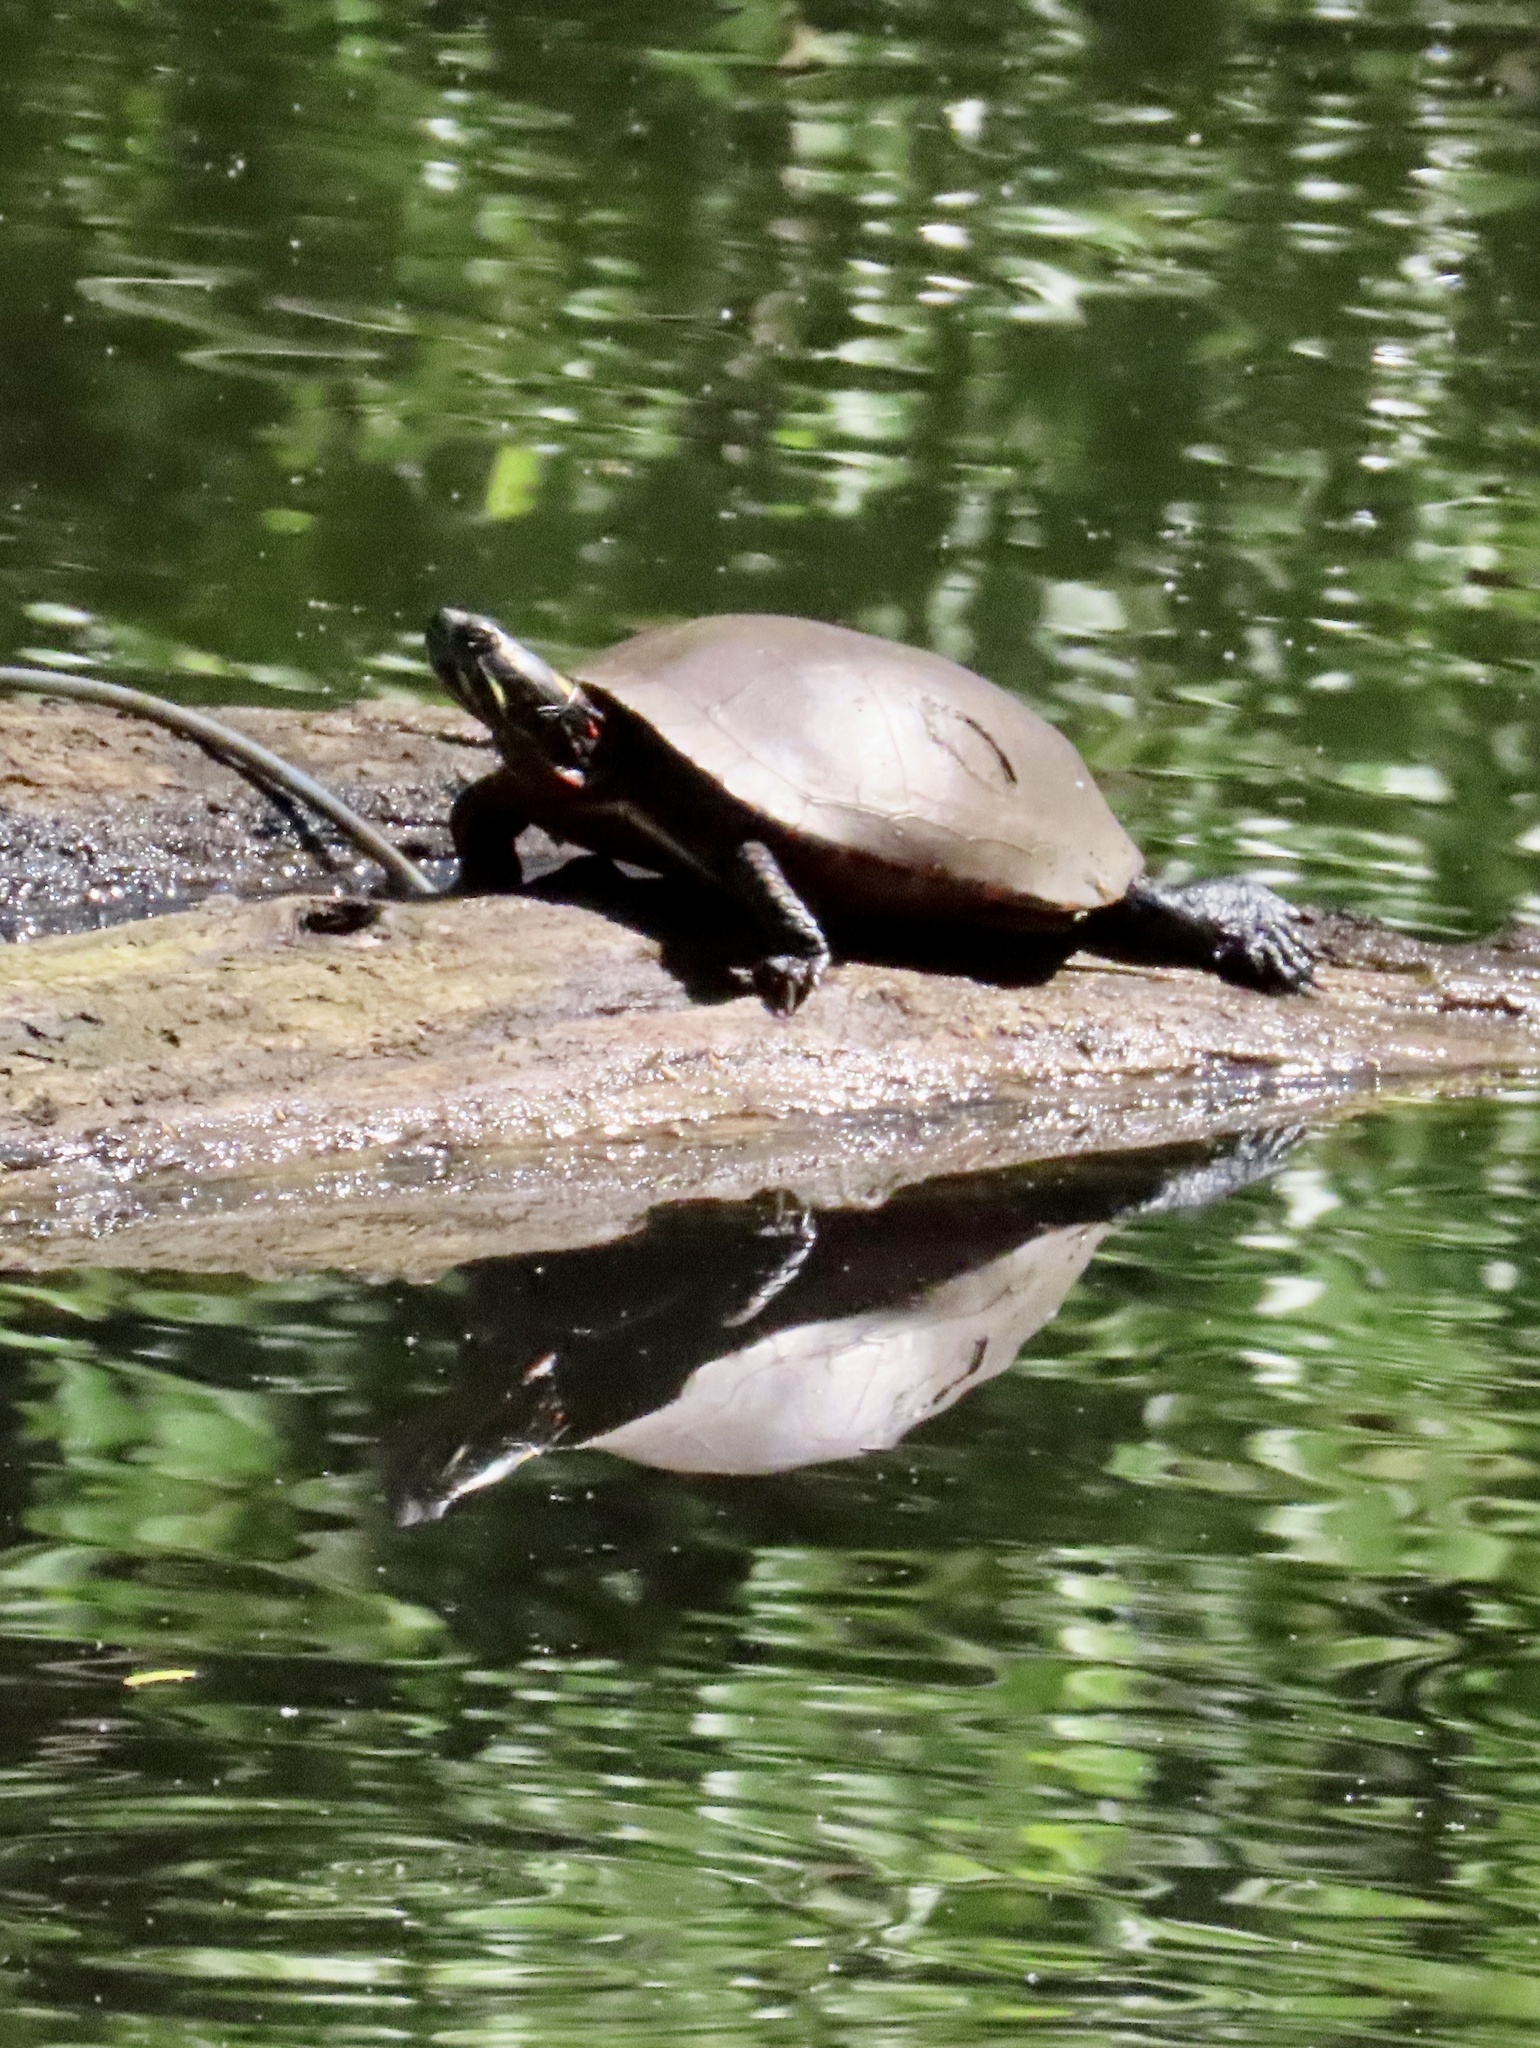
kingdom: Animalia
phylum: Chordata
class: Testudines
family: Emydidae
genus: Chrysemys
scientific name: Chrysemys picta
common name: Painted turtle
